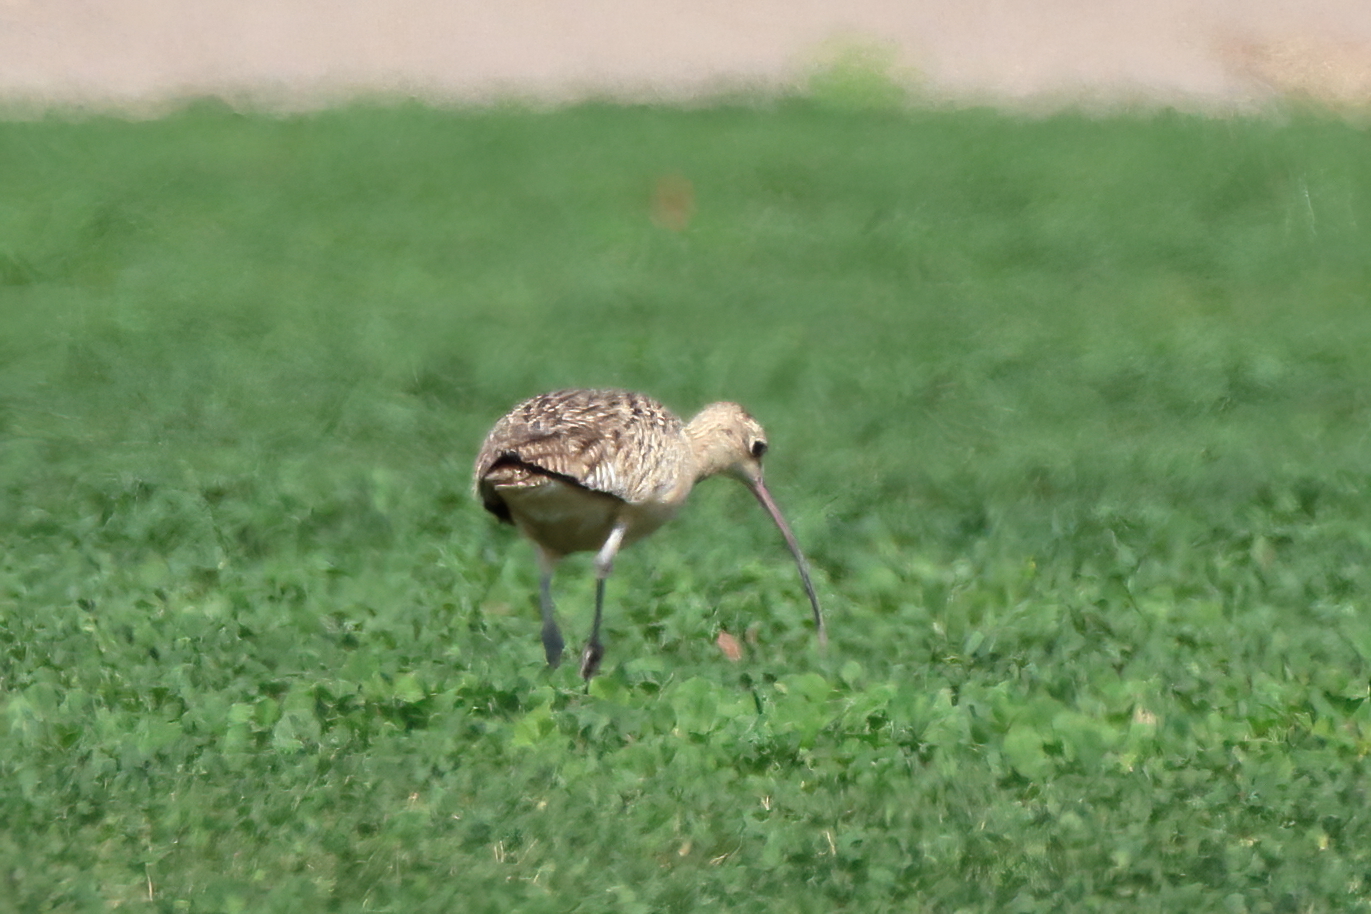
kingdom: Animalia
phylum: Chordata
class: Aves
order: Charadriiformes
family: Scolopacidae
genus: Numenius
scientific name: Numenius americanus
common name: Long-billed curlew
